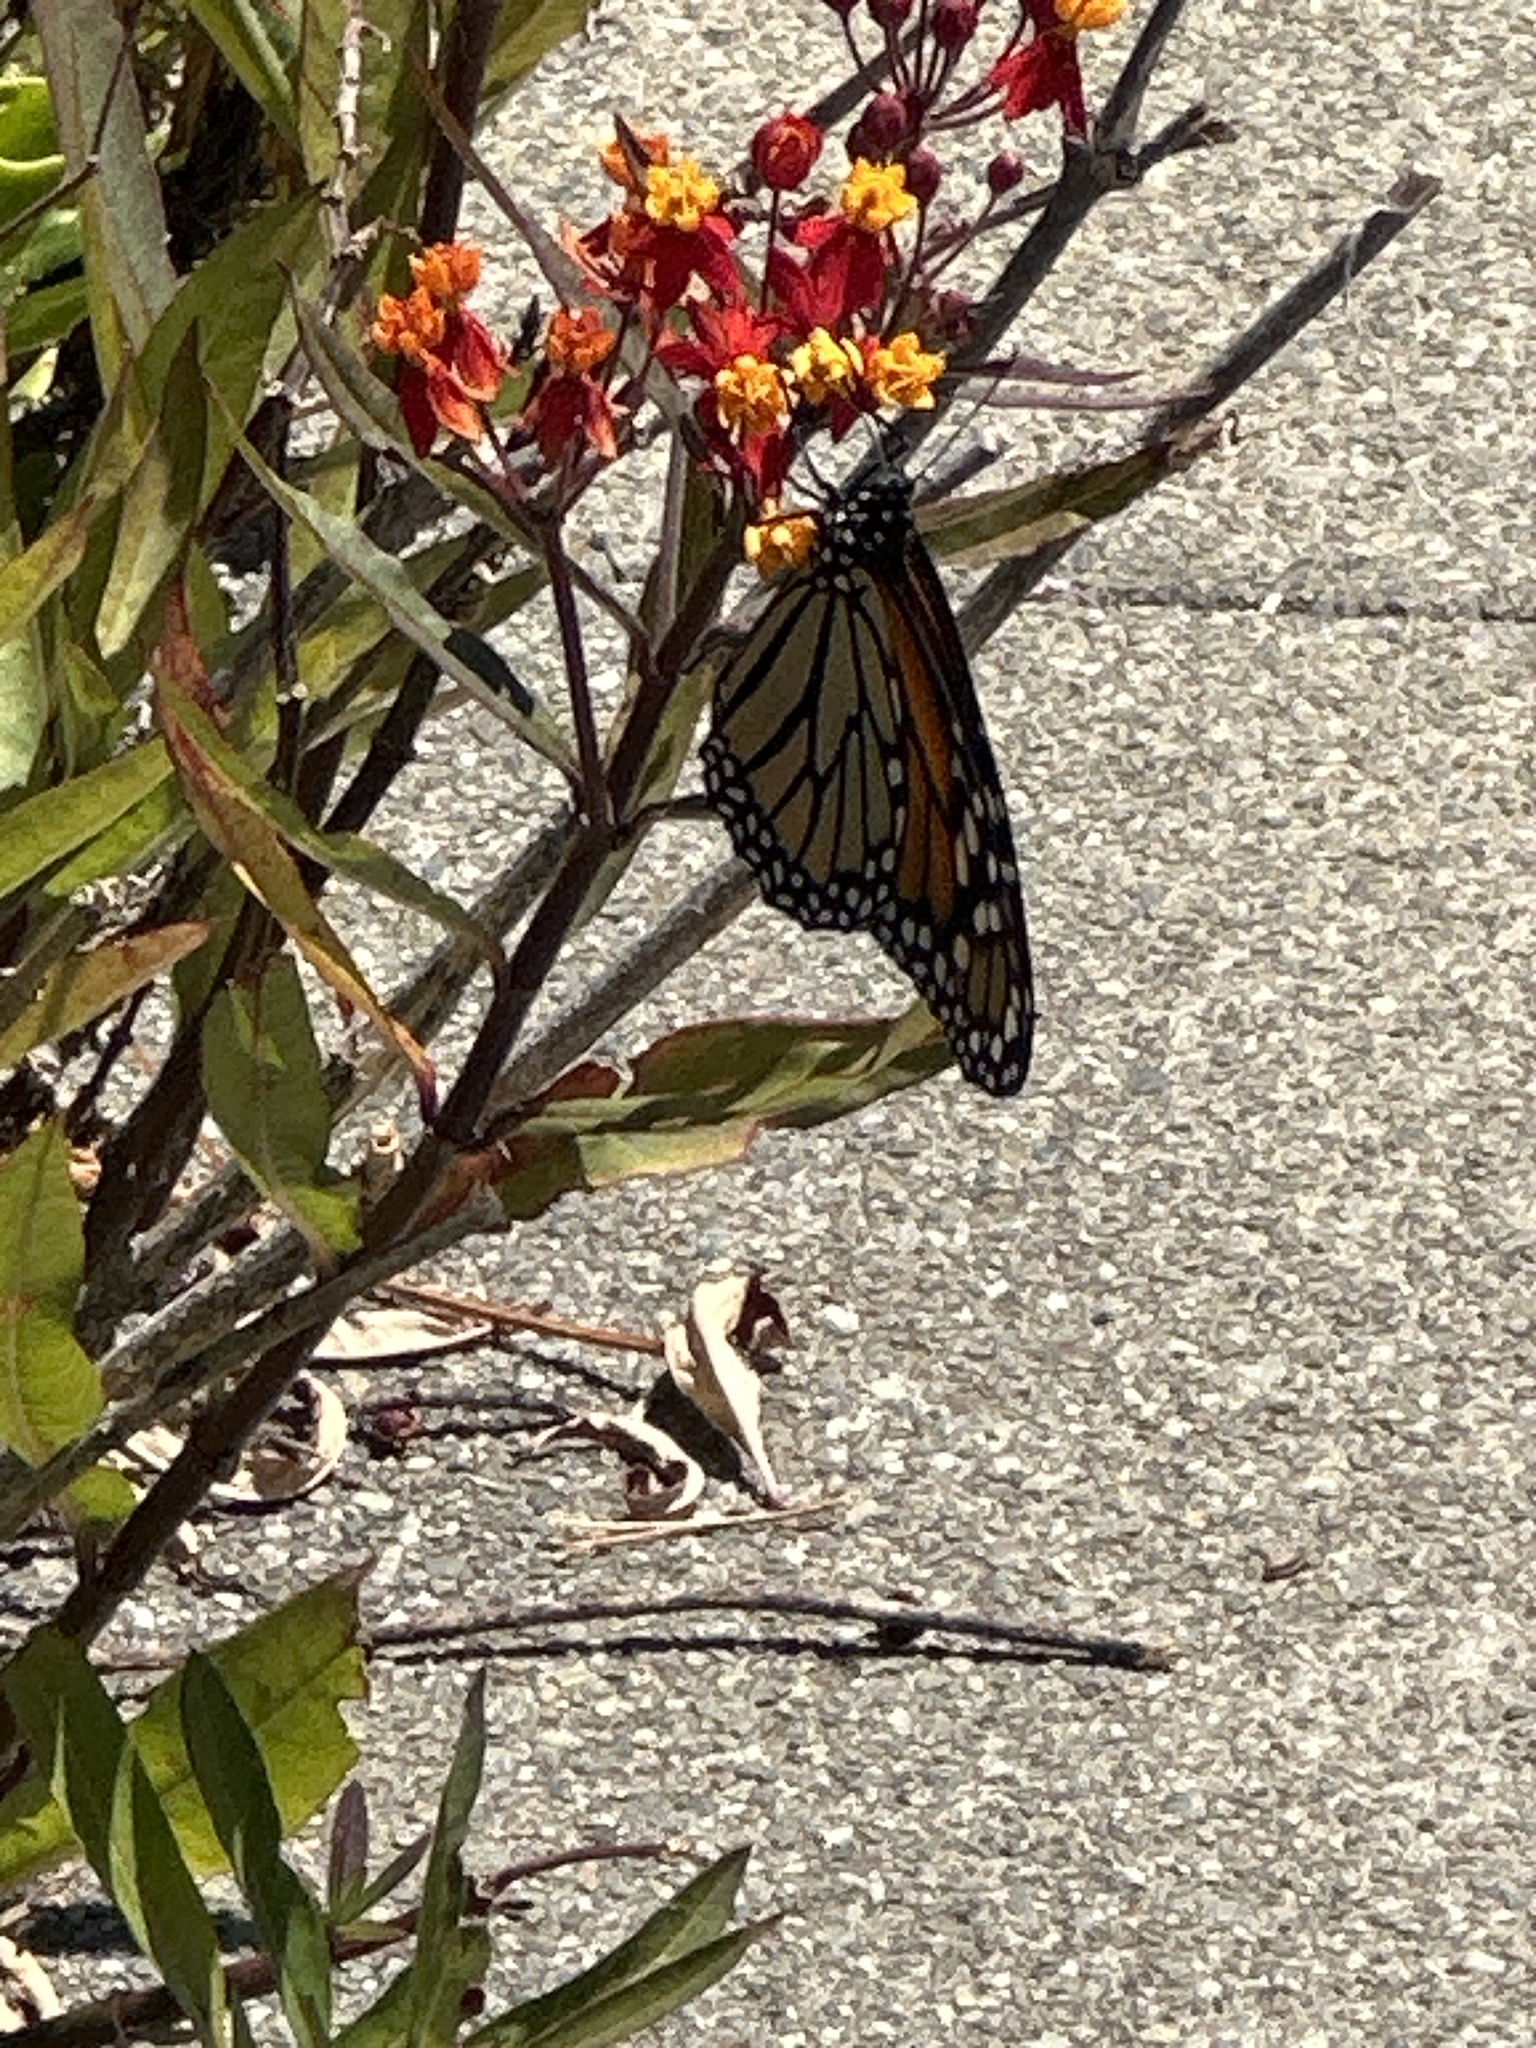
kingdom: Animalia
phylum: Arthropoda
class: Insecta
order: Lepidoptera
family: Nymphalidae
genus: Danaus
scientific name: Danaus plexippus
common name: Monarch
